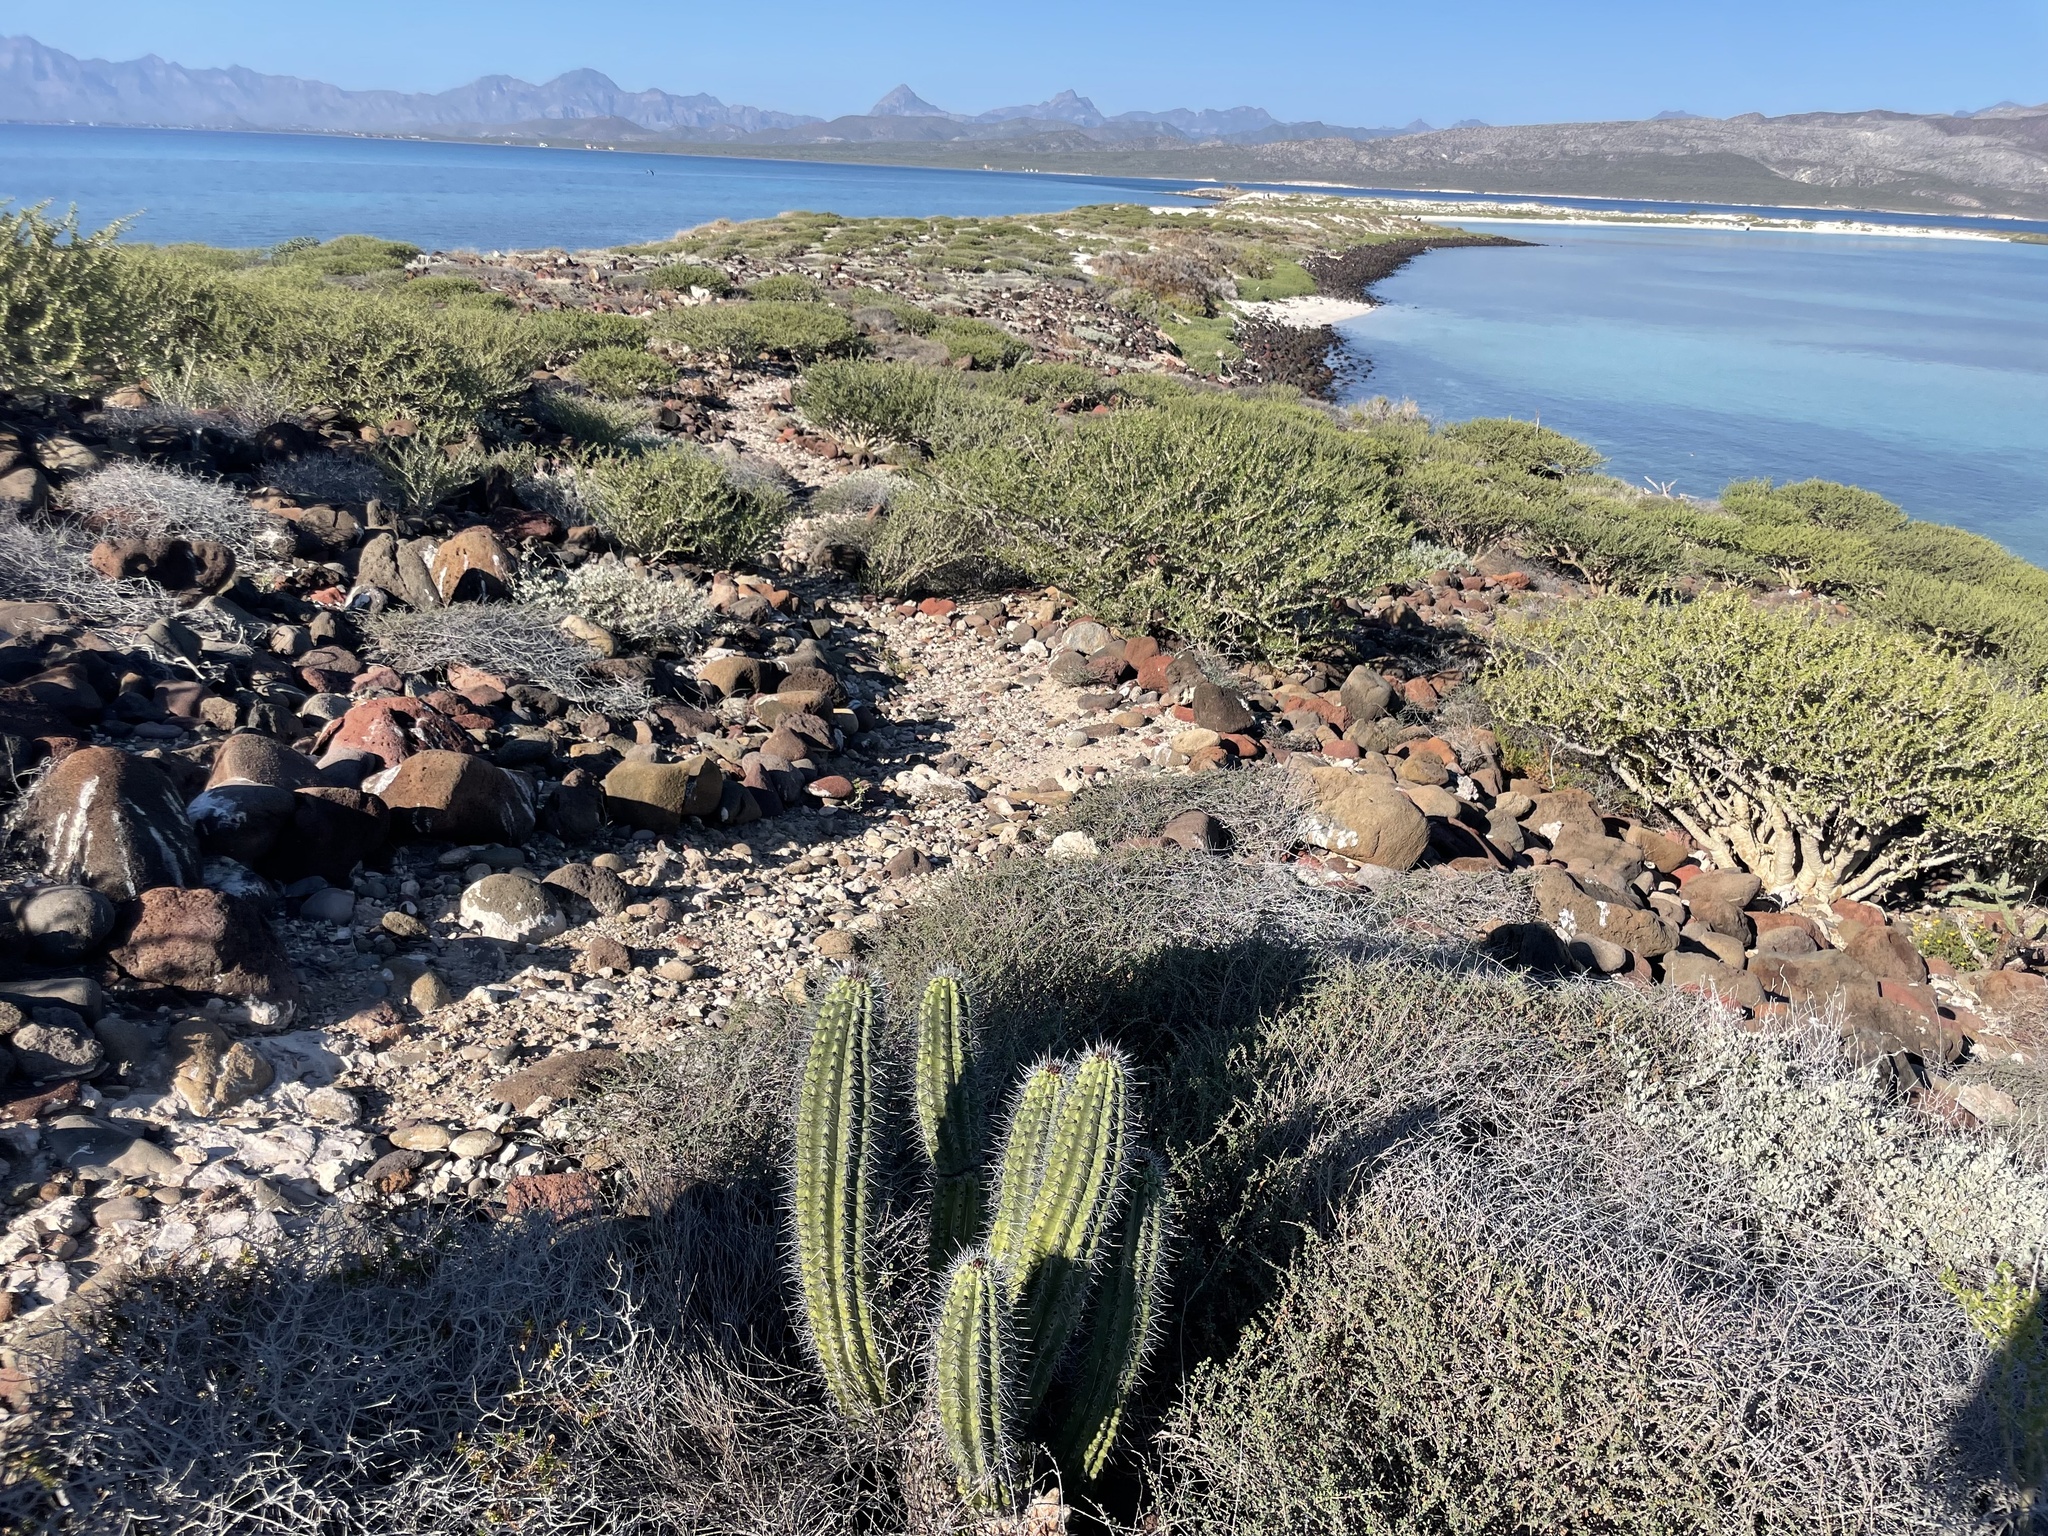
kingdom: Plantae
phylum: Tracheophyta
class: Magnoliopsida
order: Caryophyllales
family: Cactaceae
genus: Stenocereus
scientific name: Stenocereus thurberi
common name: Organ pipe cactus
